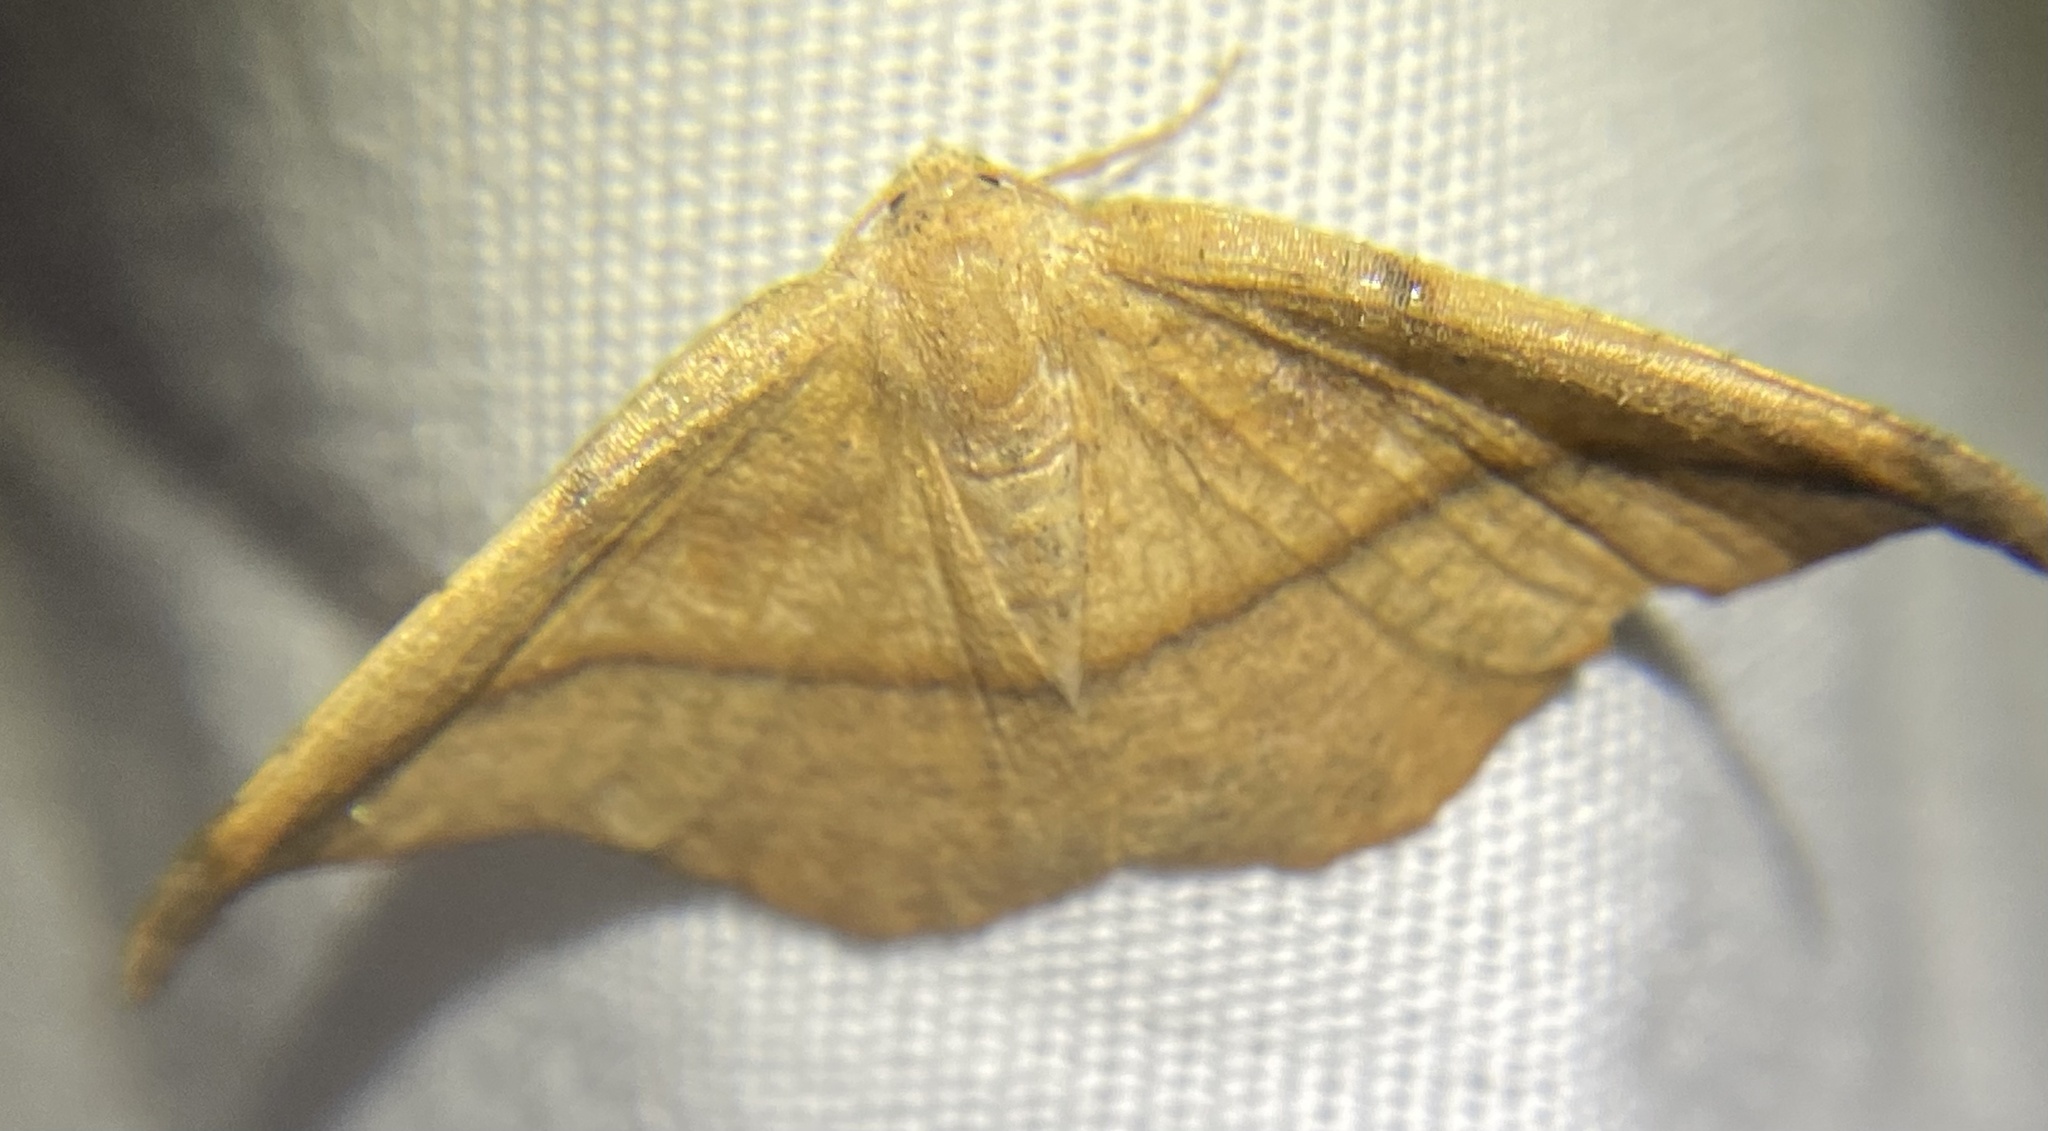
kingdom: Animalia
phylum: Arthropoda
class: Insecta
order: Lepidoptera
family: Geometridae
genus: Patalene
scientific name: Patalene olyzonaria
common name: Juniper geometer moth
